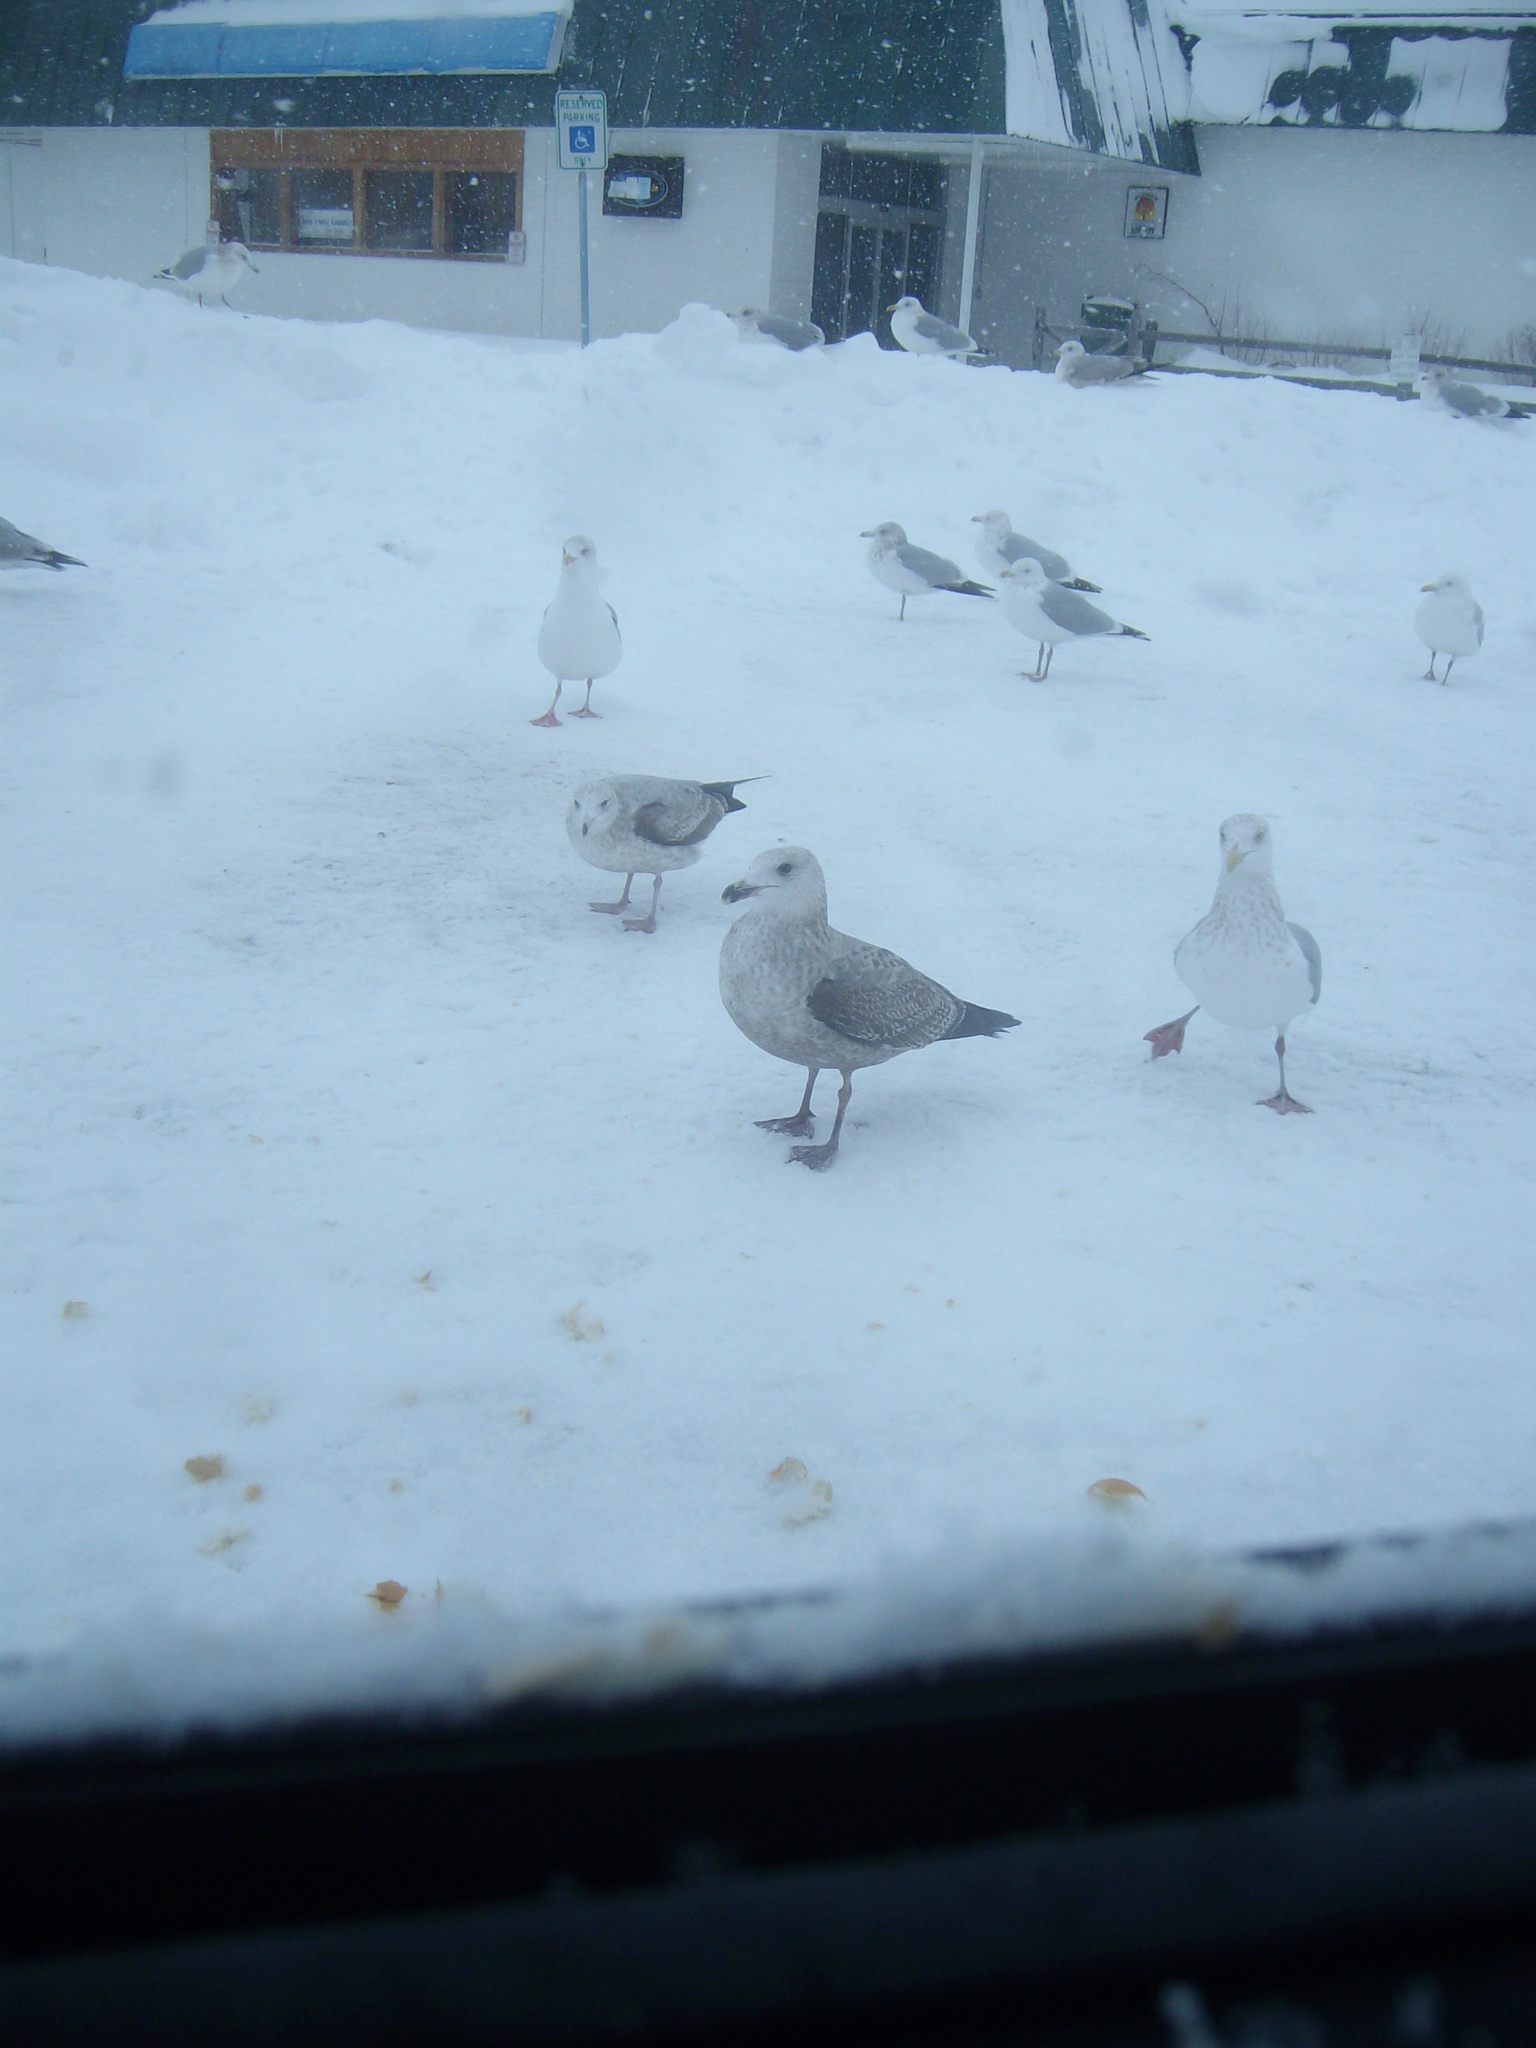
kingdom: Animalia
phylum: Chordata
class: Aves
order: Charadriiformes
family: Laridae
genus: Larus
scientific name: Larus marinus
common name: Great black-backed gull
